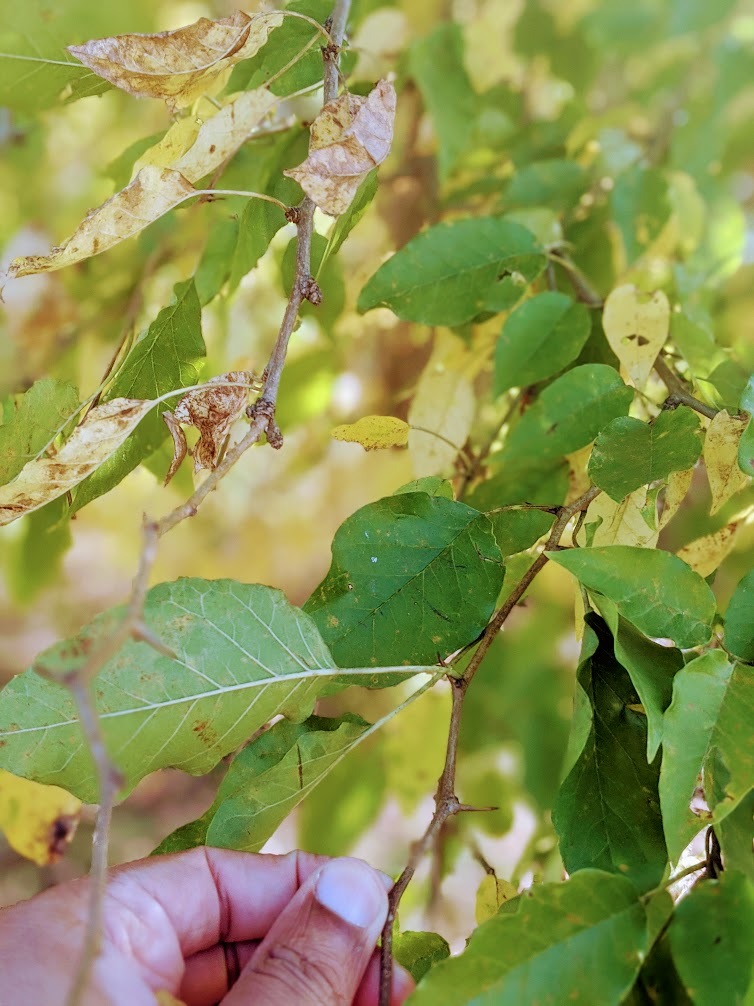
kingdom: Plantae
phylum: Tracheophyta
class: Magnoliopsida
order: Rosales
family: Moraceae
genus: Maclura
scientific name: Maclura pomifera
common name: Osage-orange
